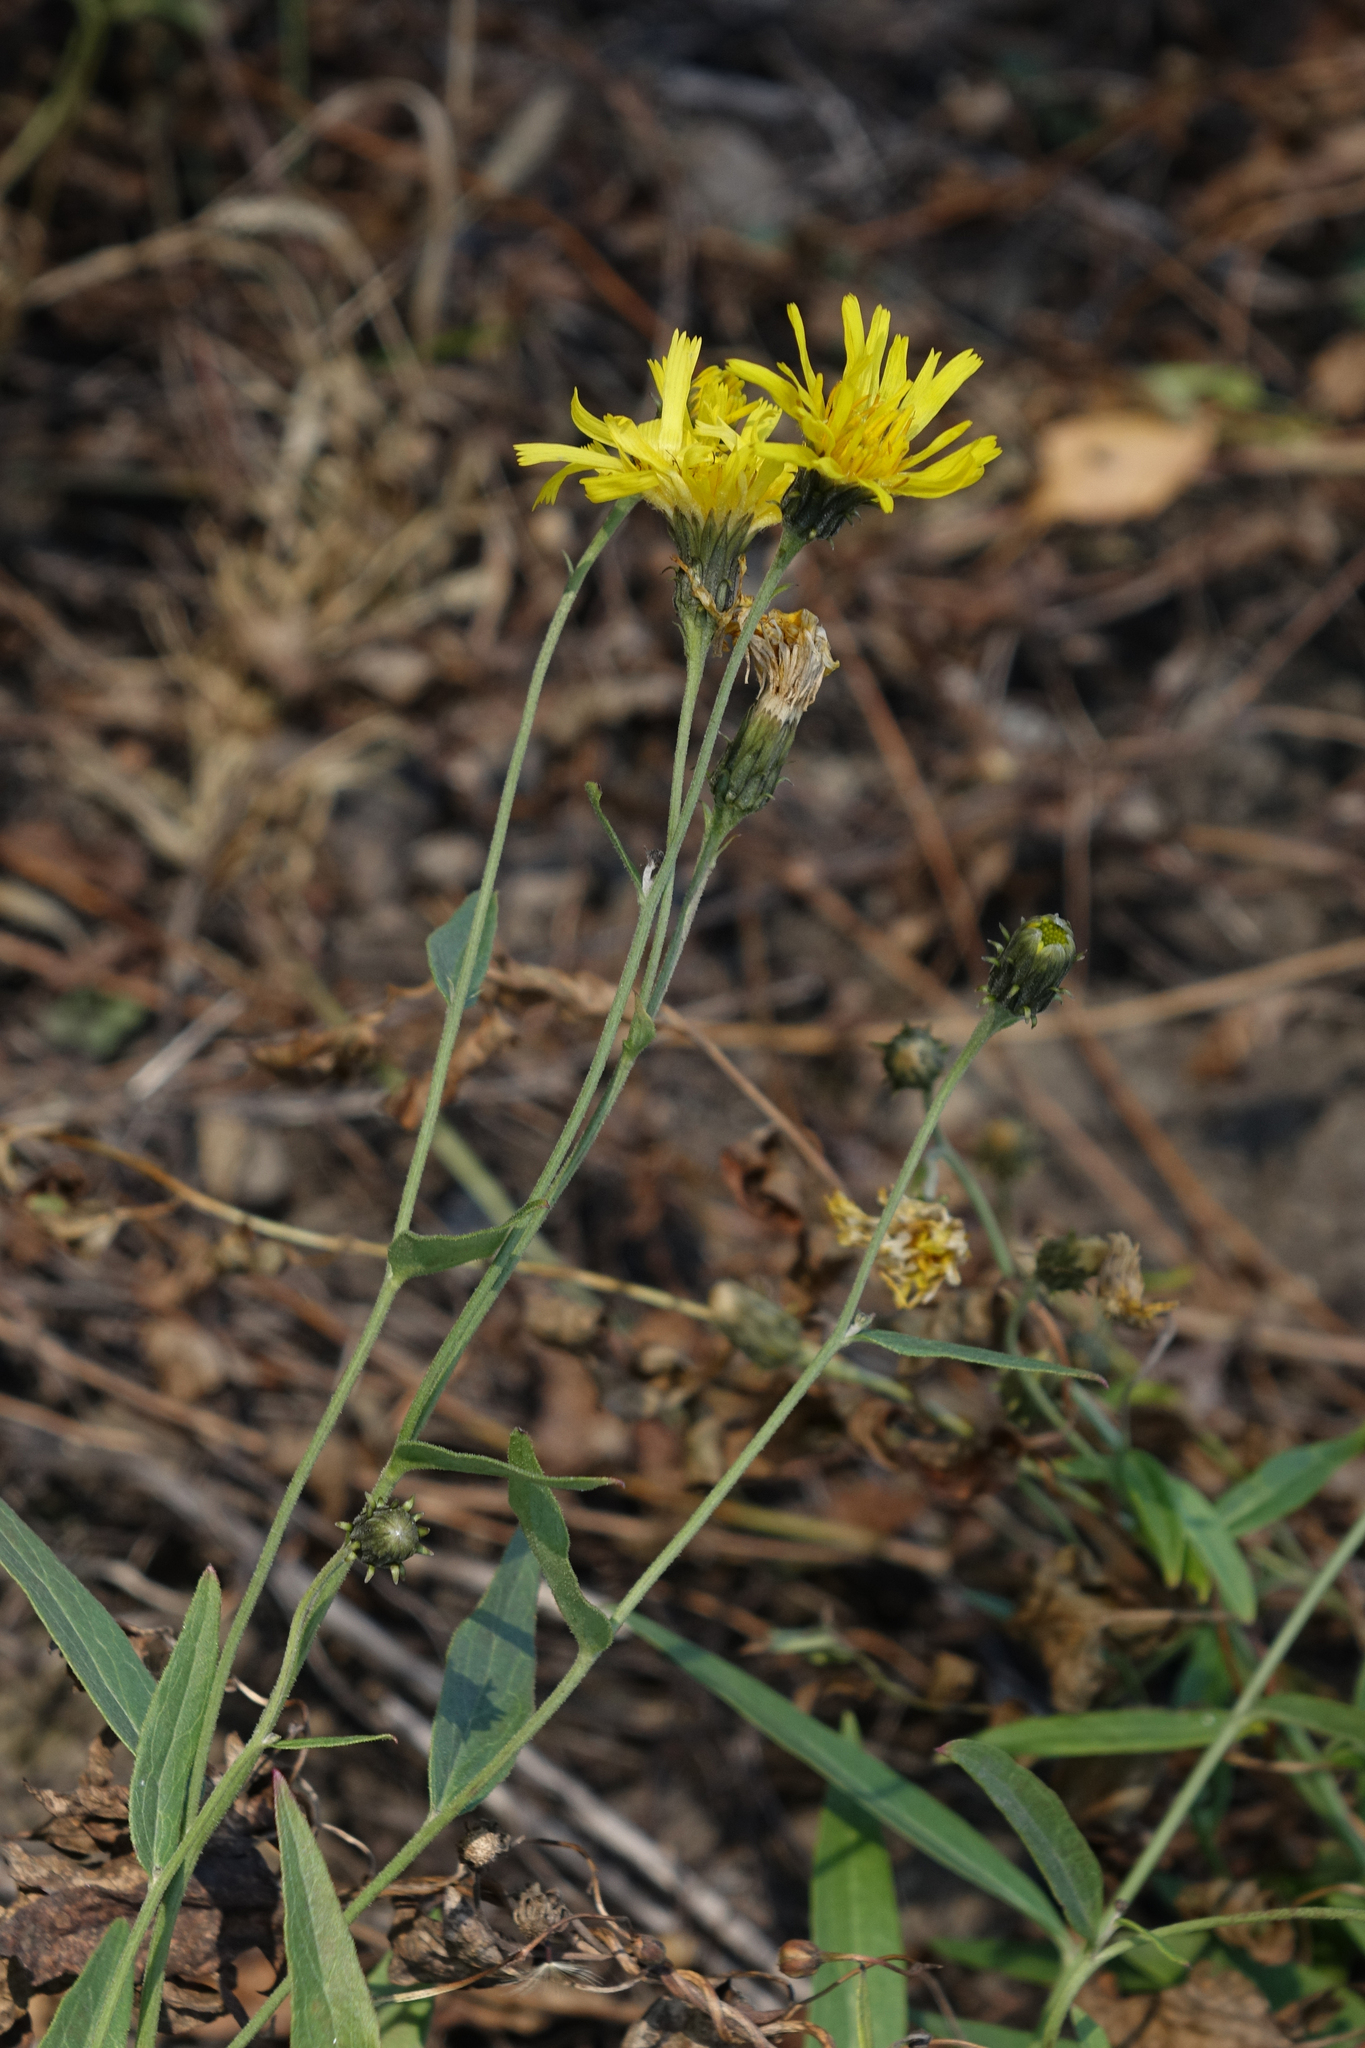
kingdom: Plantae
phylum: Tracheophyta
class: Magnoliopsida
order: Asterales
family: Asteraceae
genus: Hieracium
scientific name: Hieracium umbellatum
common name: Northern hawkweed
